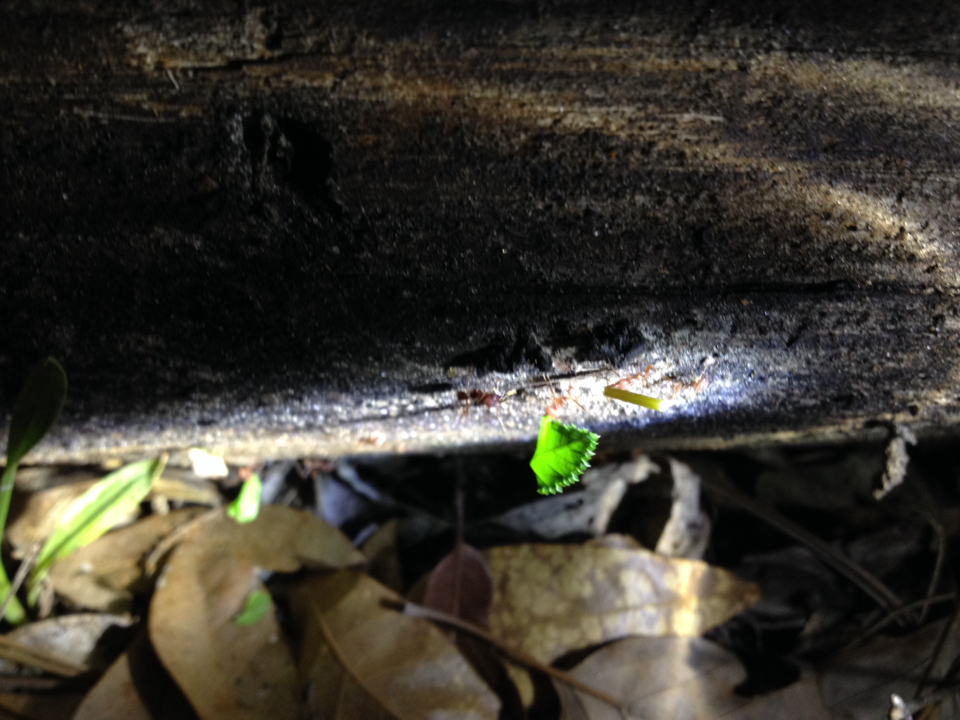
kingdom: Animalia
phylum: Arthropoda
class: Insecta
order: Hymenoptera
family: Formicidae
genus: Atta
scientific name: Atta texana
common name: Texas leafcutting ant
